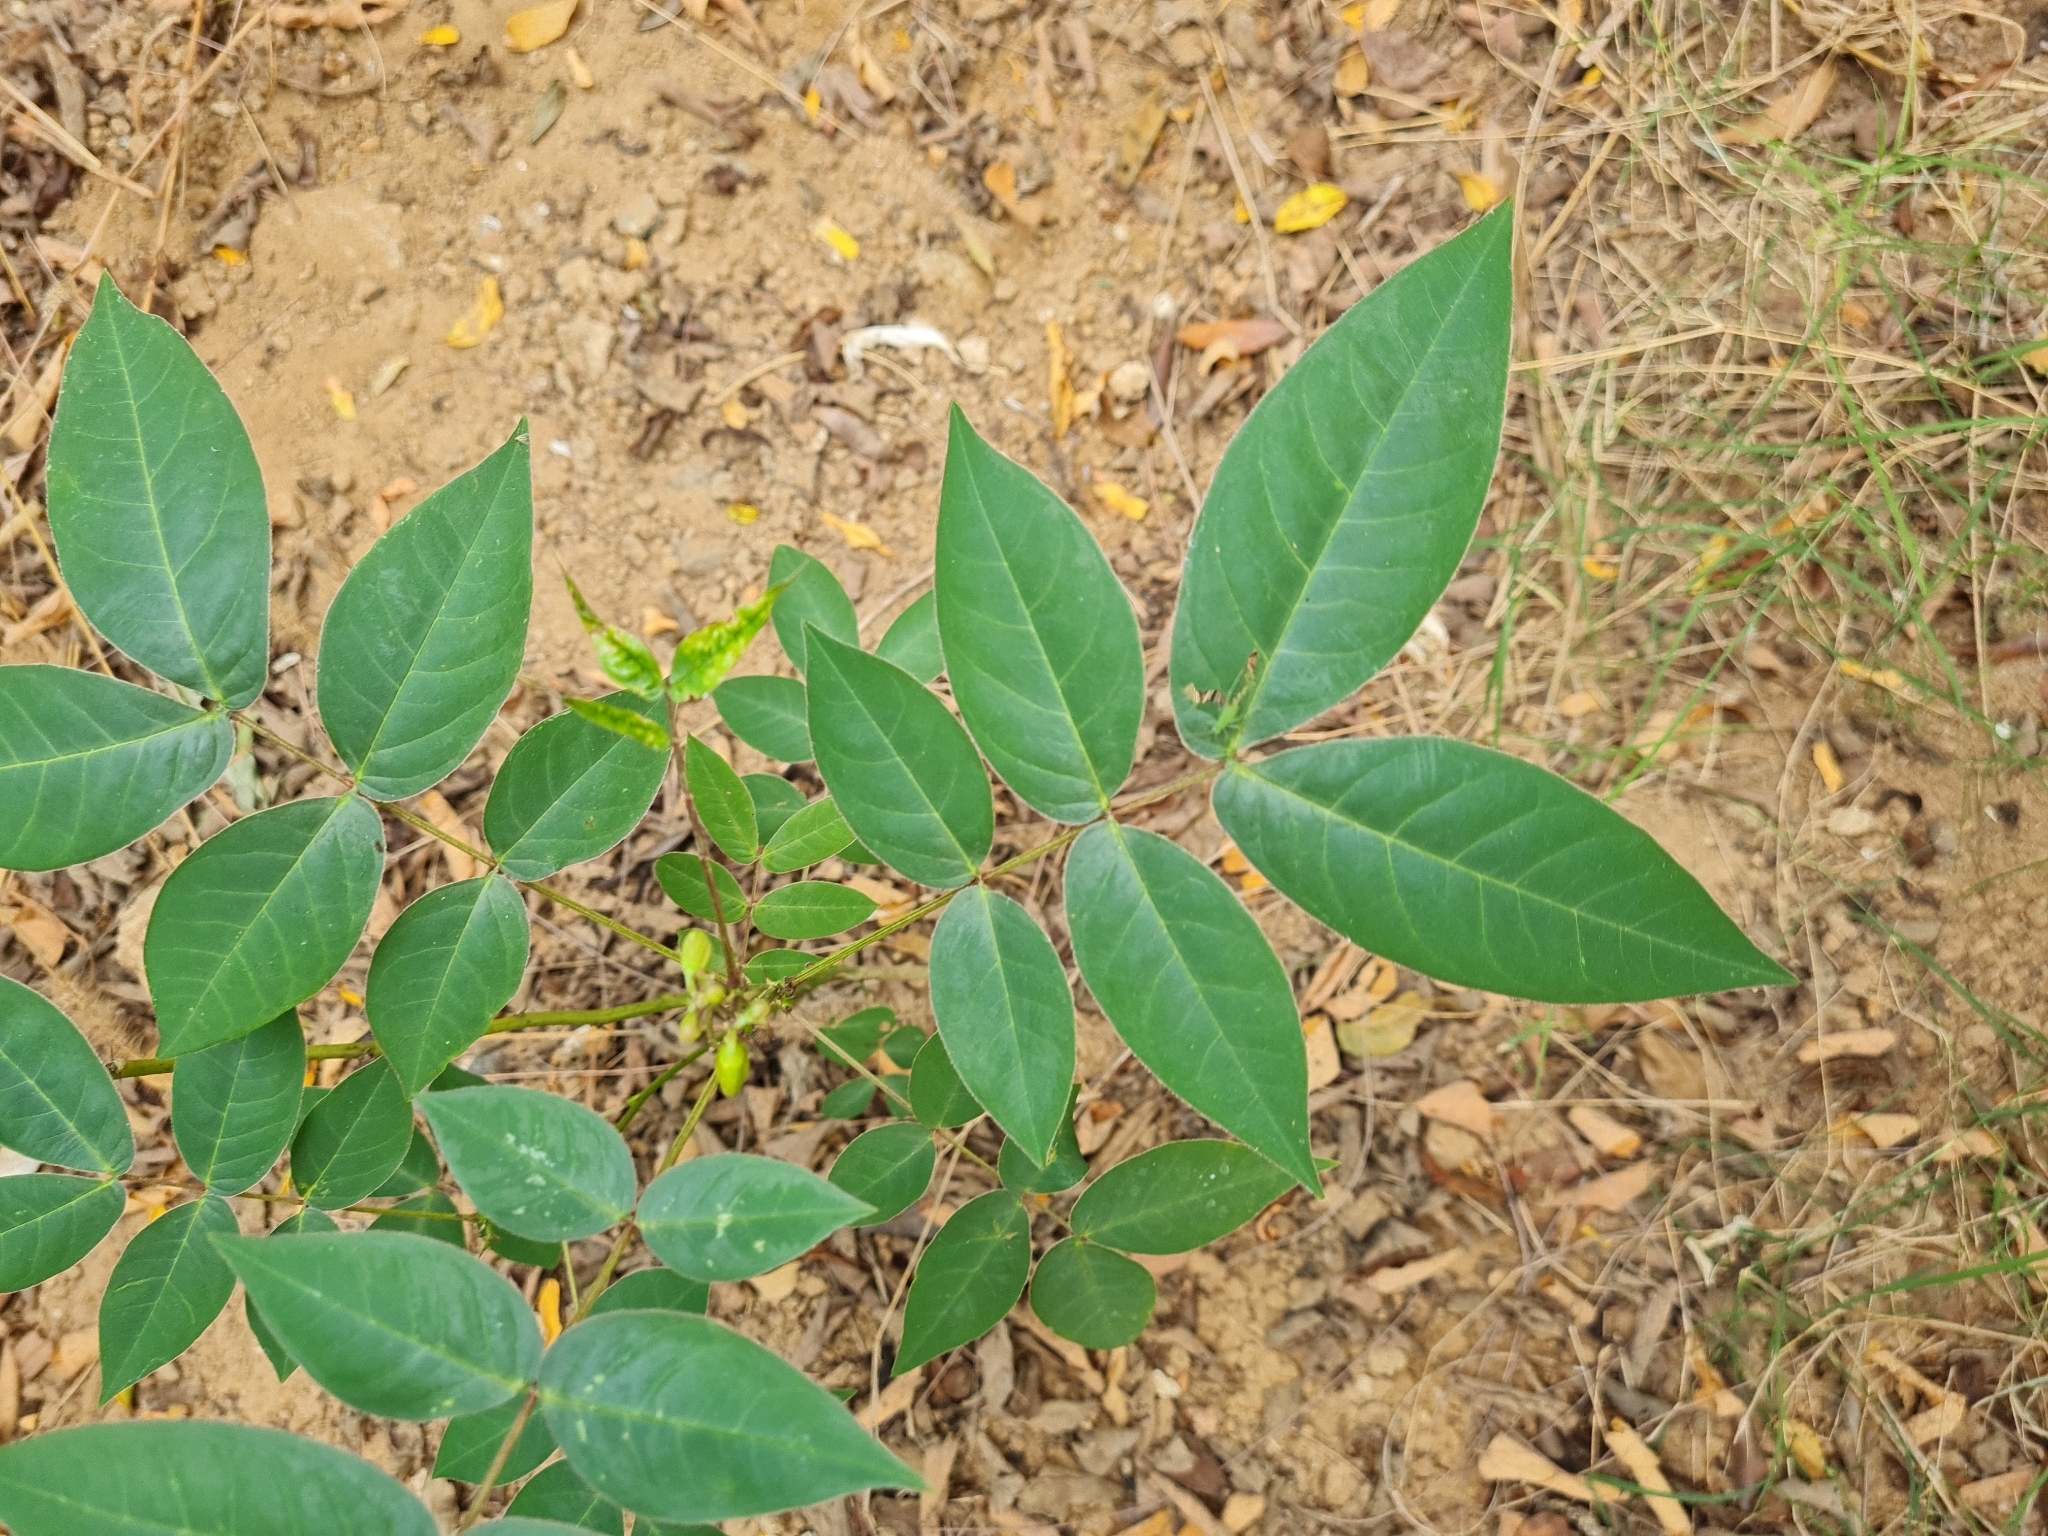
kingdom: Plantae
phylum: Tracheophyta
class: Magnoliopsida
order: Fabales
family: Fabaceae
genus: Senna
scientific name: Senna occidentalis
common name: Septicweed
